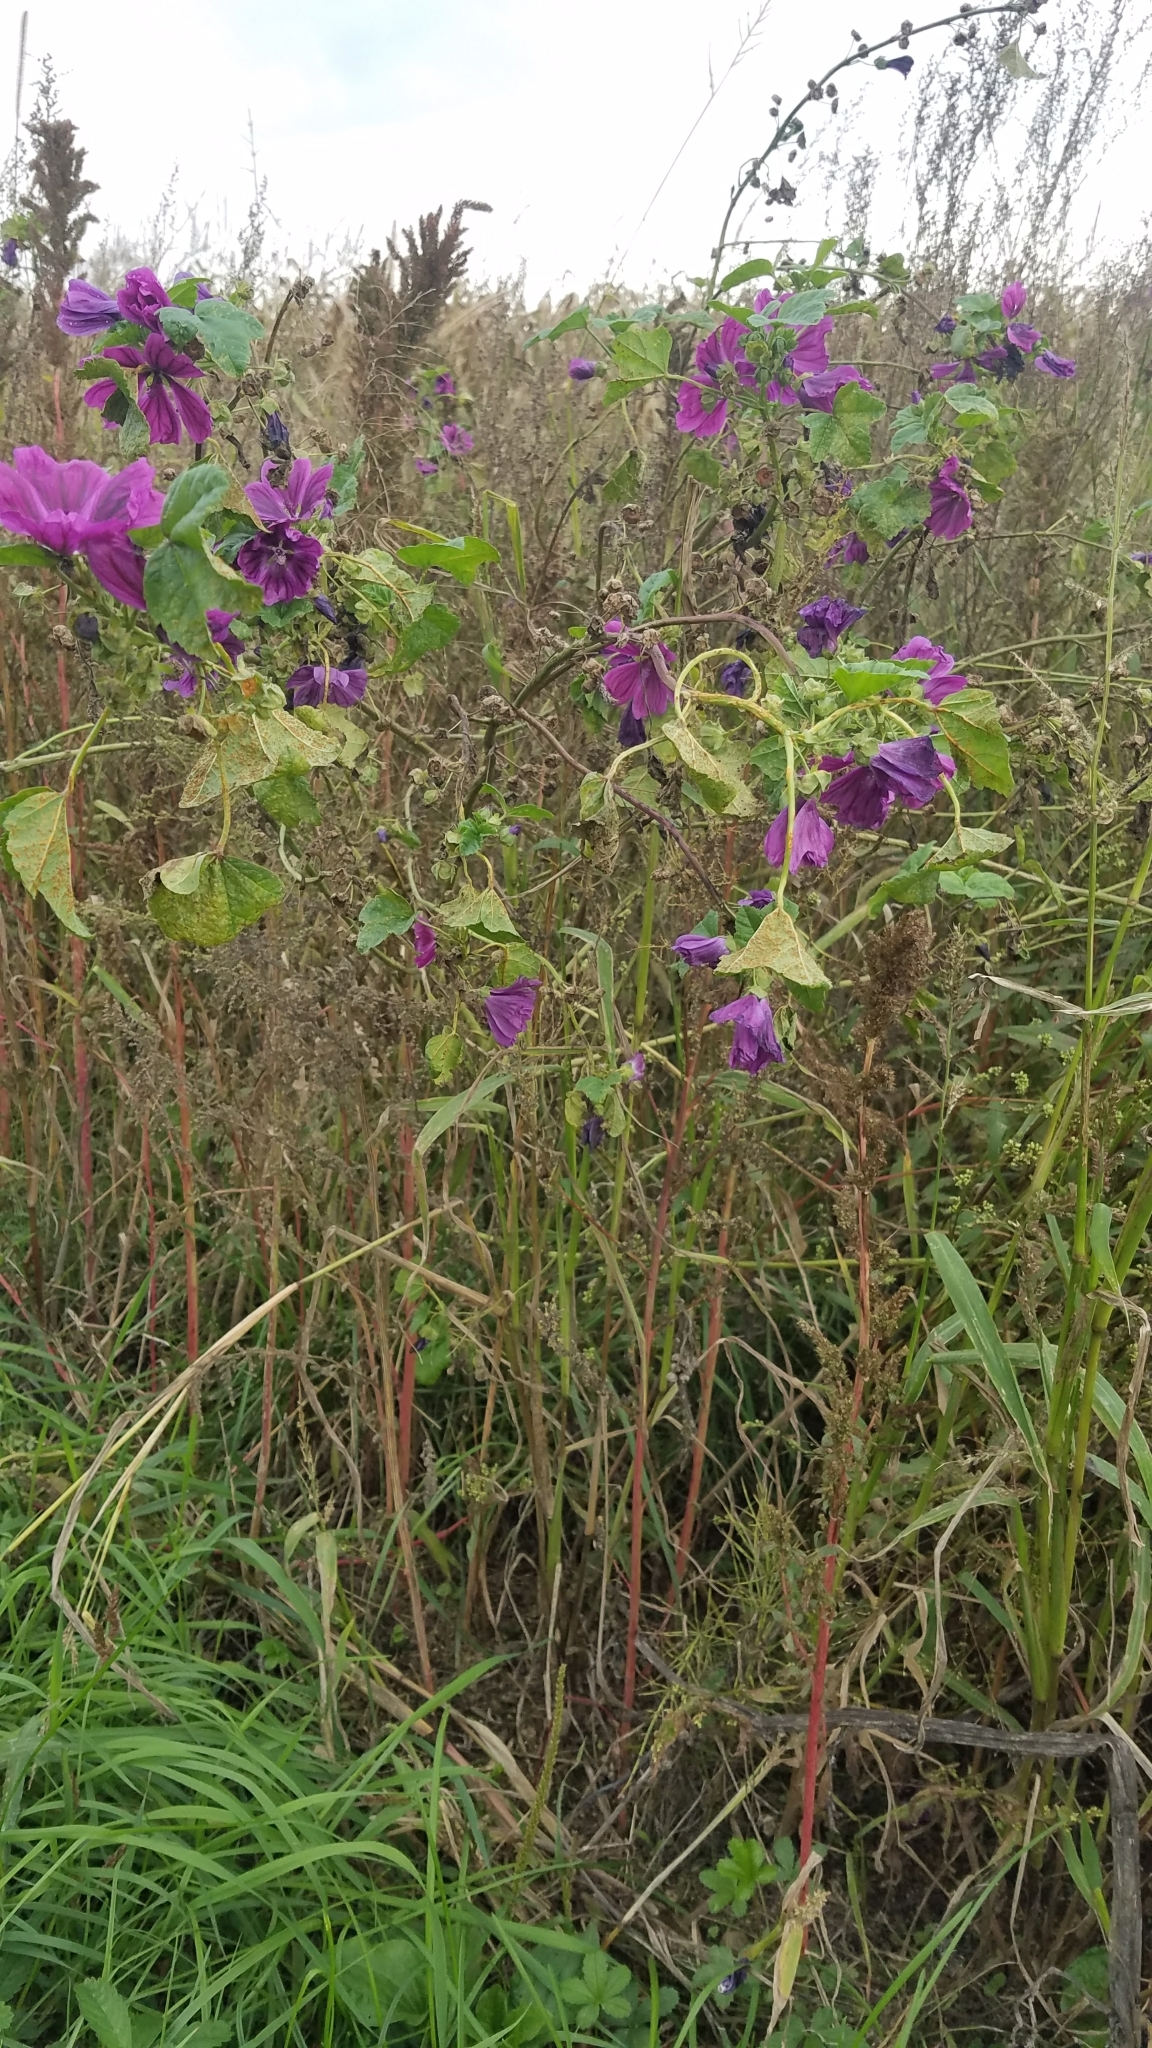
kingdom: Plantae
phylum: Tracheophyta
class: Magnoliopsida
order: Malvales
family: Malvaceae
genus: Malva
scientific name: Malva sylvestris
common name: Common mallow
